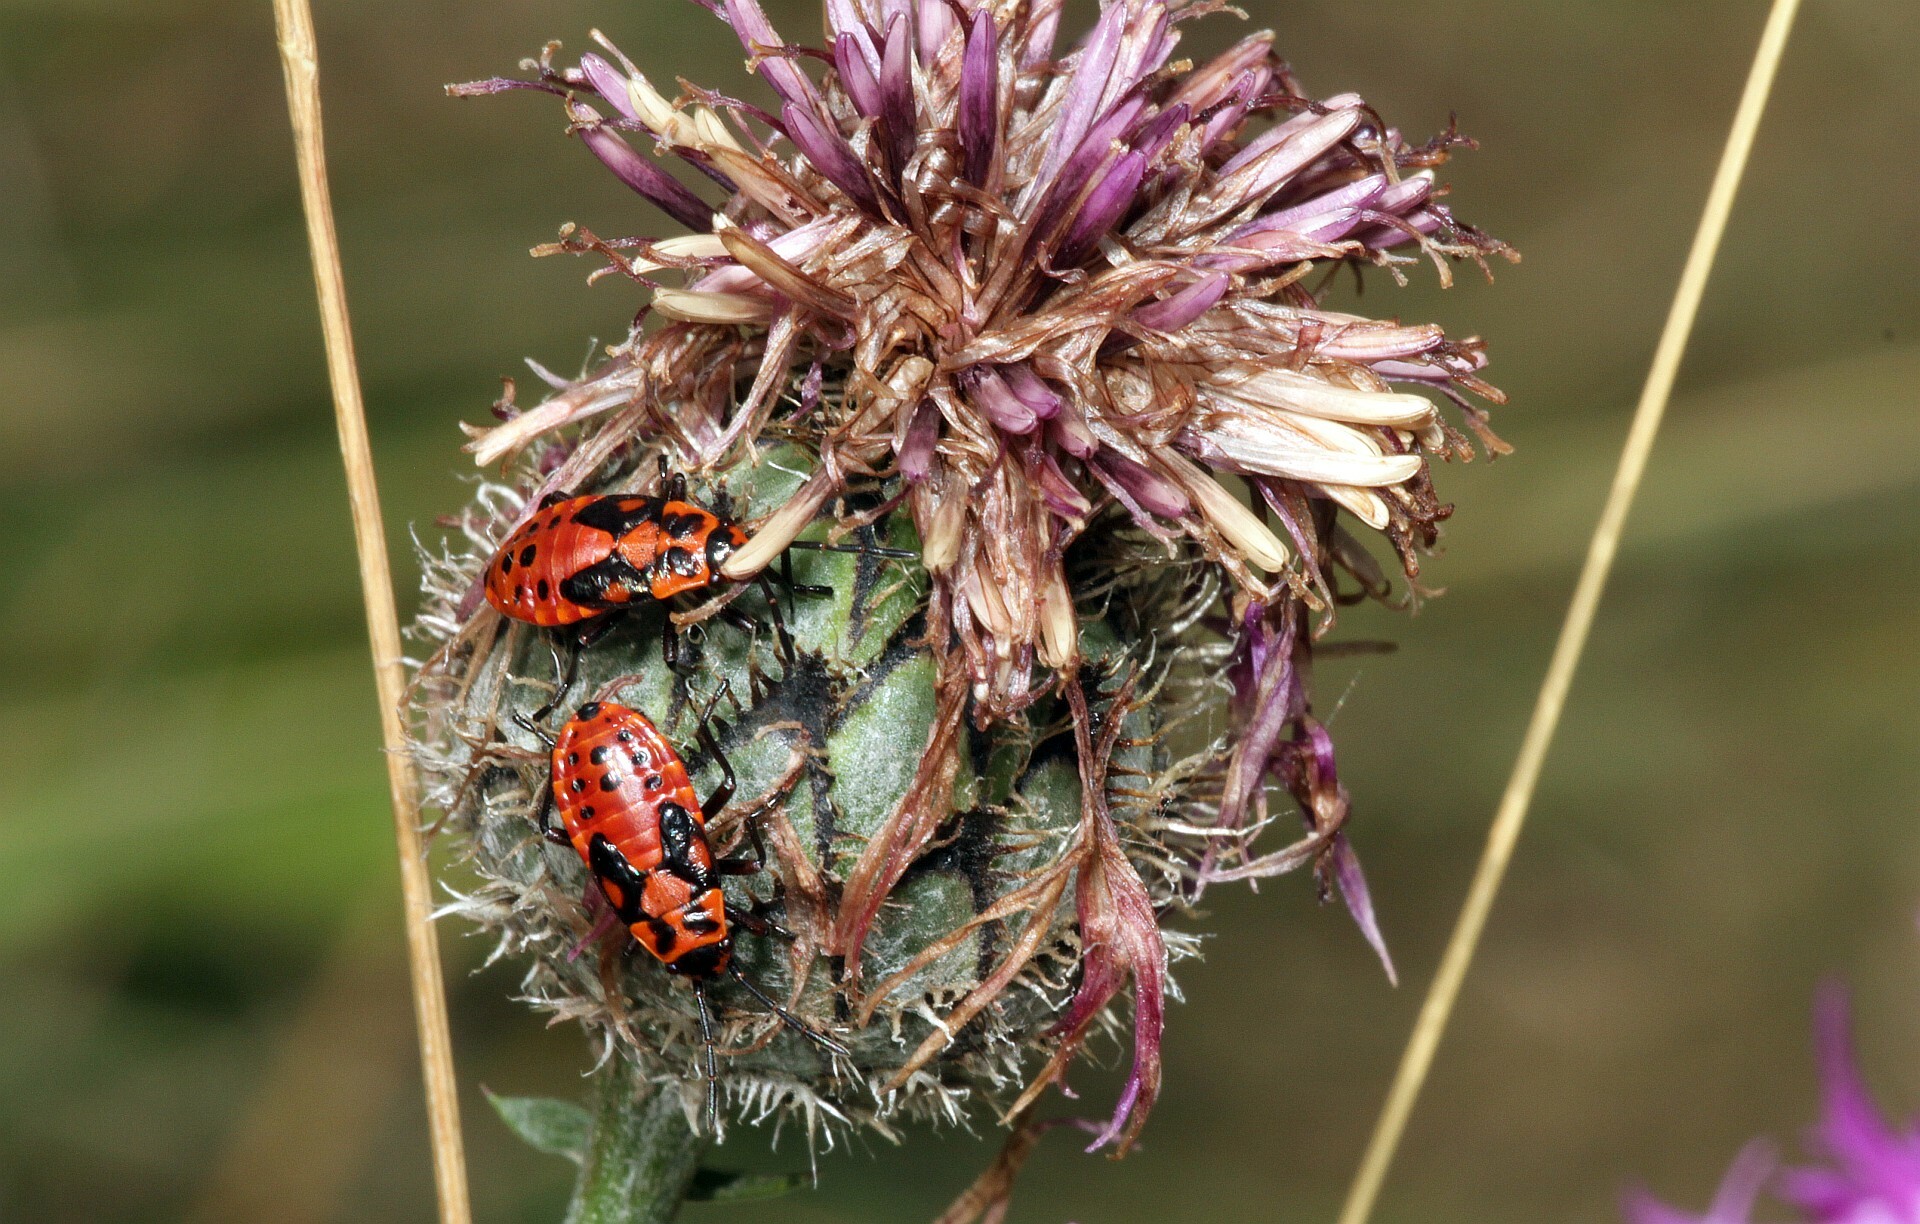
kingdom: Animalia
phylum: Arthropoda
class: Insecta
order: Hemiptera
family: Lygaeidae
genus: Spilostethus
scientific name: Spilostethus saxatilis
